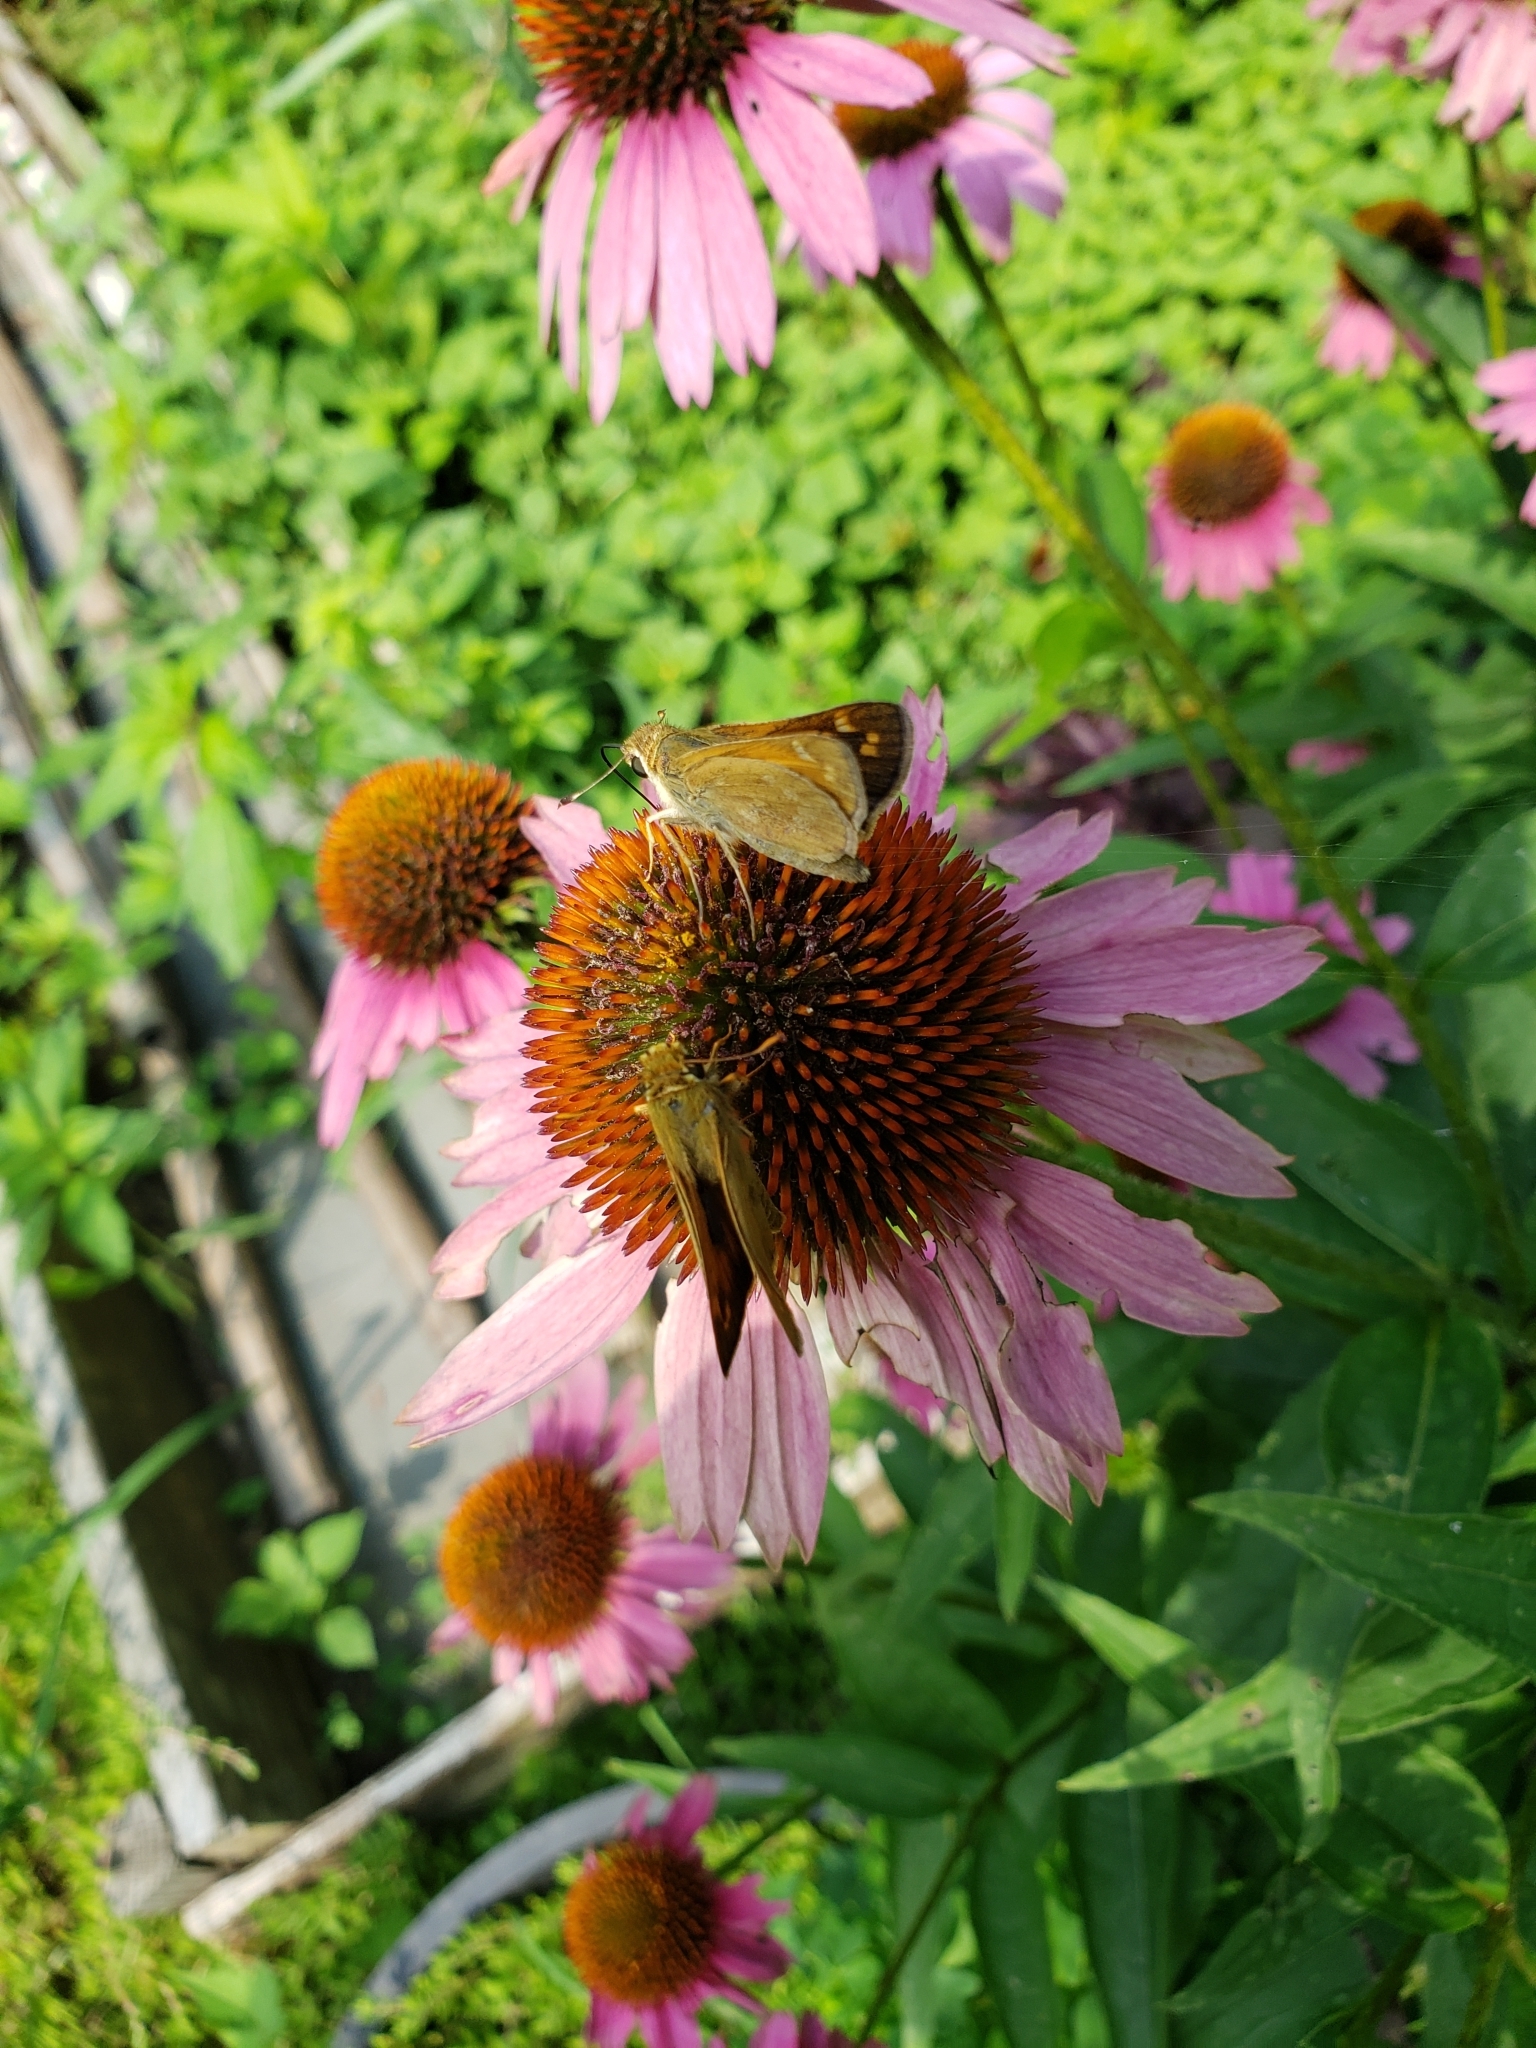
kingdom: Animalia
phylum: Arthropoda
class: Insecta
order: Lepidoptera
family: Hesperiidae
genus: Atalopedes
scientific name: Atalopedes
